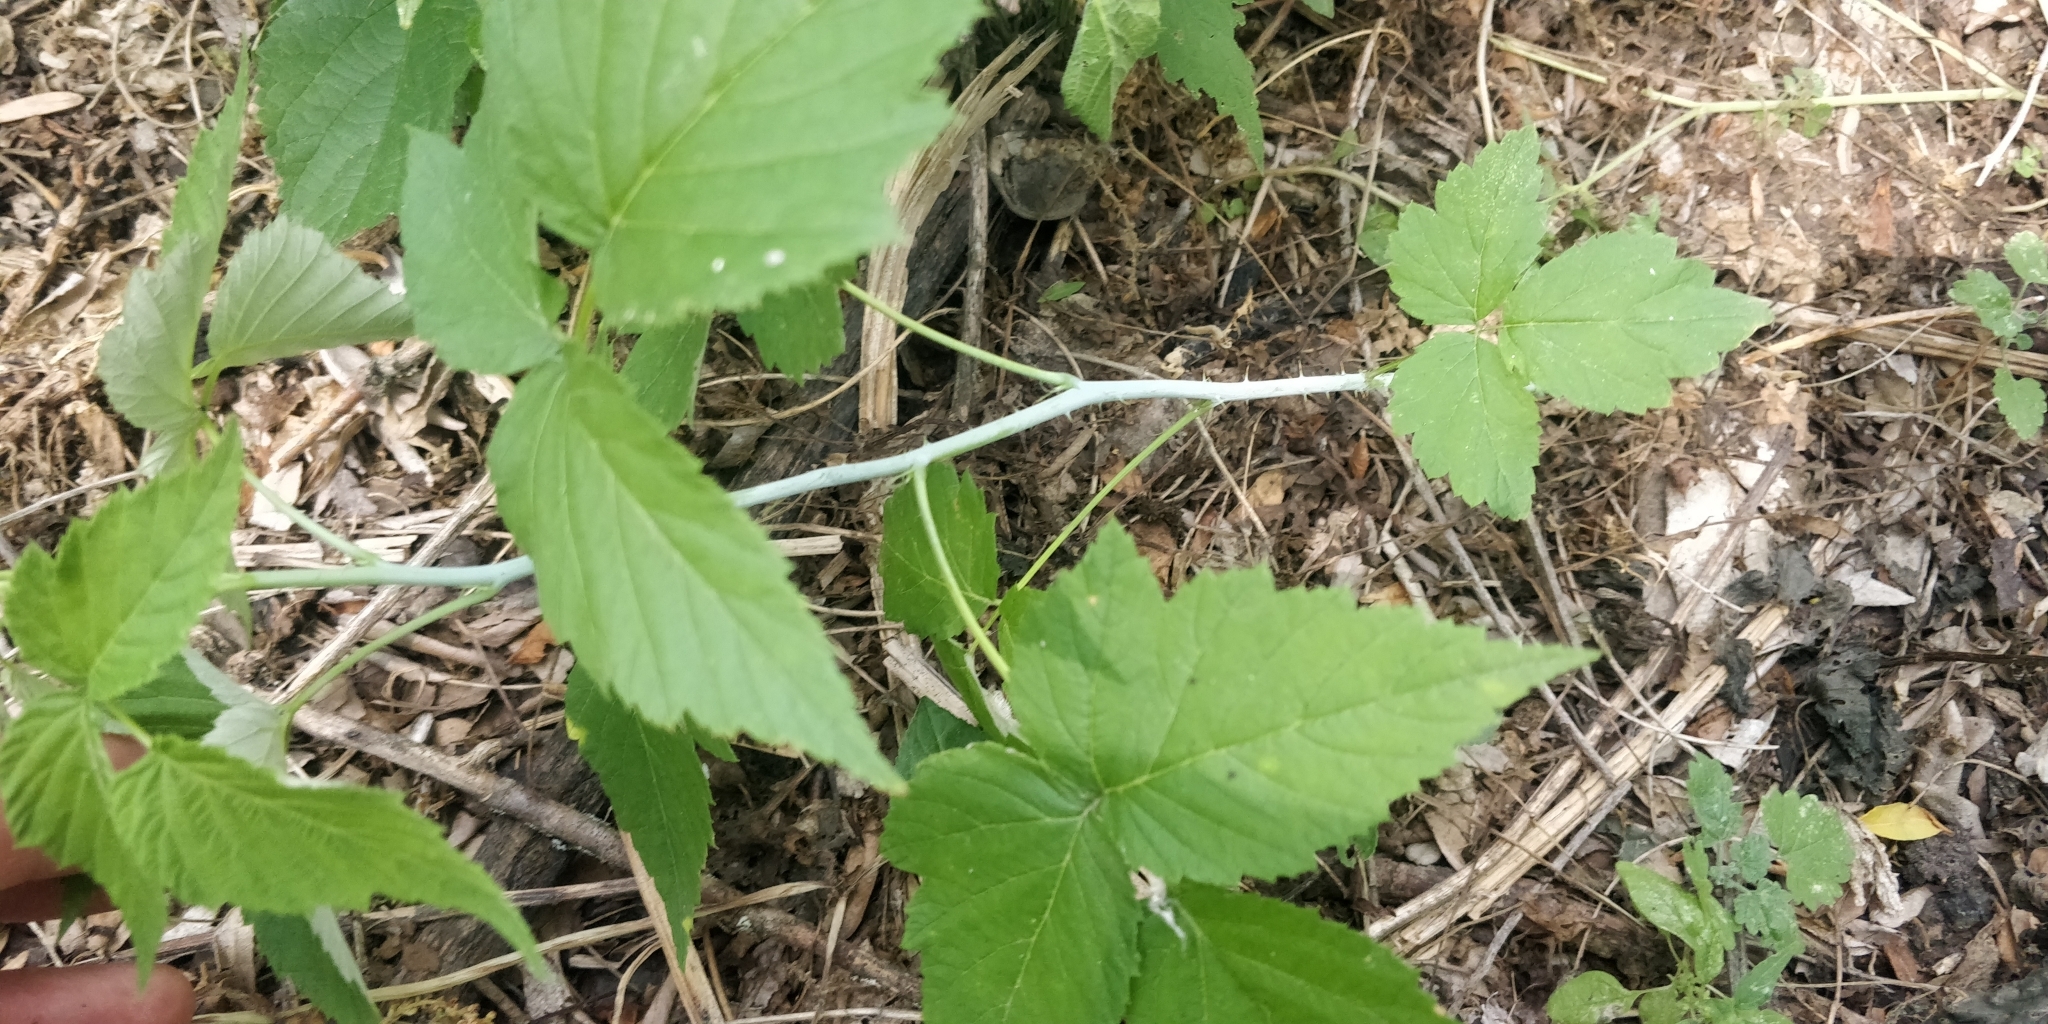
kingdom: Plantae
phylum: Tracheophyta
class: Magnoliopsida
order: Rosales
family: Rosaceae
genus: Rubus
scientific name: Rubus occidentalis
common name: Black raspberry
